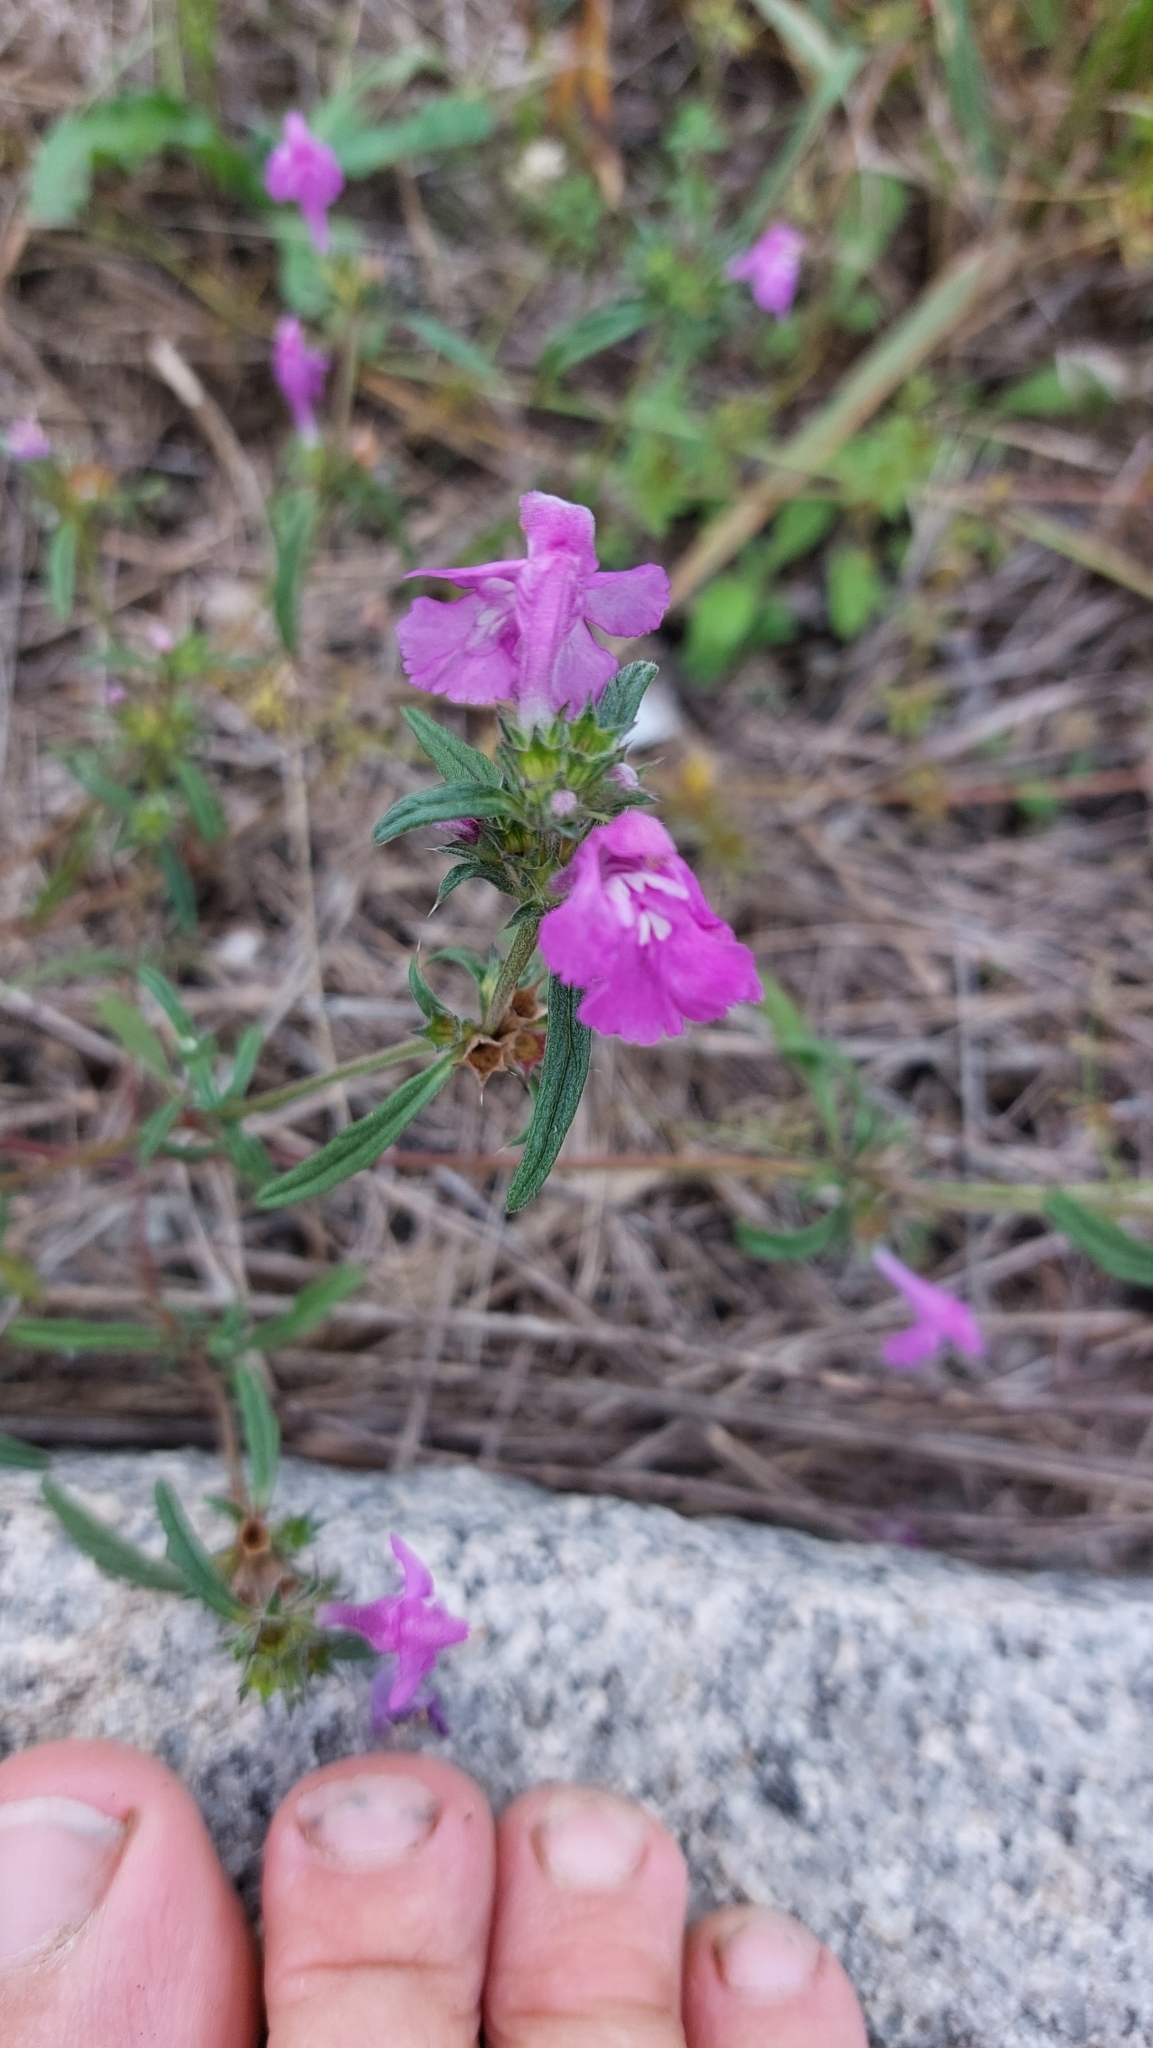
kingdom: Plantae
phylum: Tracheophyta
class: Magnoliopsida
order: Lamiales
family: Lamiaceae
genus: Galeopsis
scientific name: Galeopsis angustifolia
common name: Red hemp-nettle
